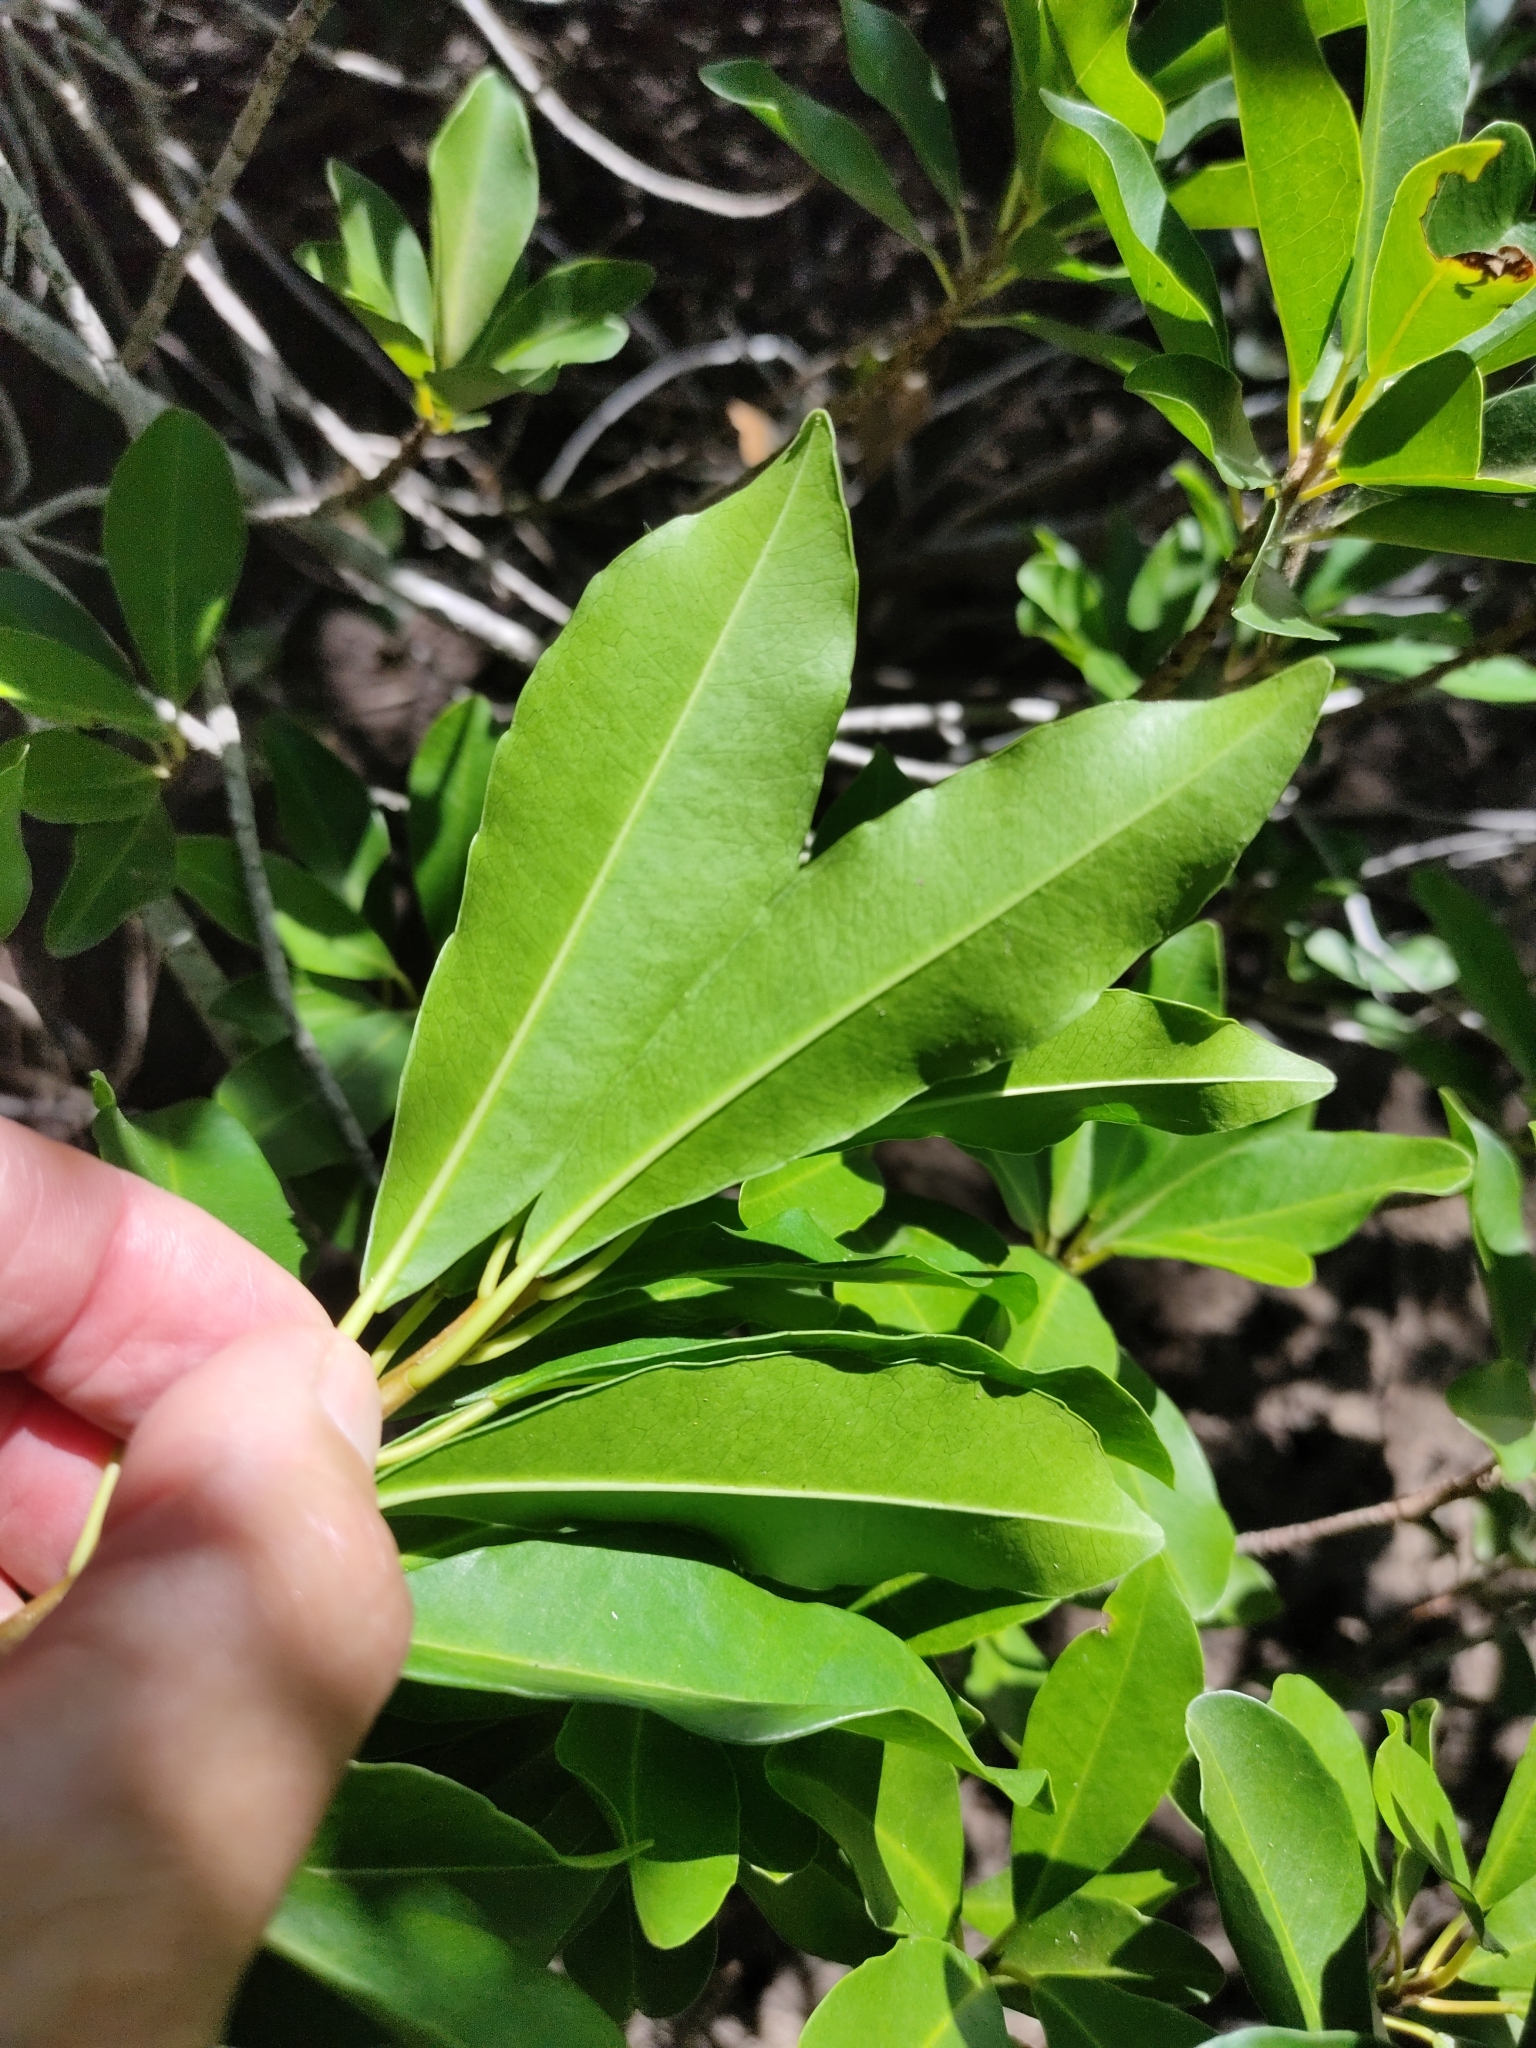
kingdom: Plantae
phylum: Tracheophyta
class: Magnoliopsida
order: Malpighiales
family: Euphorbiaceae
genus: Excoecaria
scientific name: Excoecaria agallocha
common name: River poisontree
